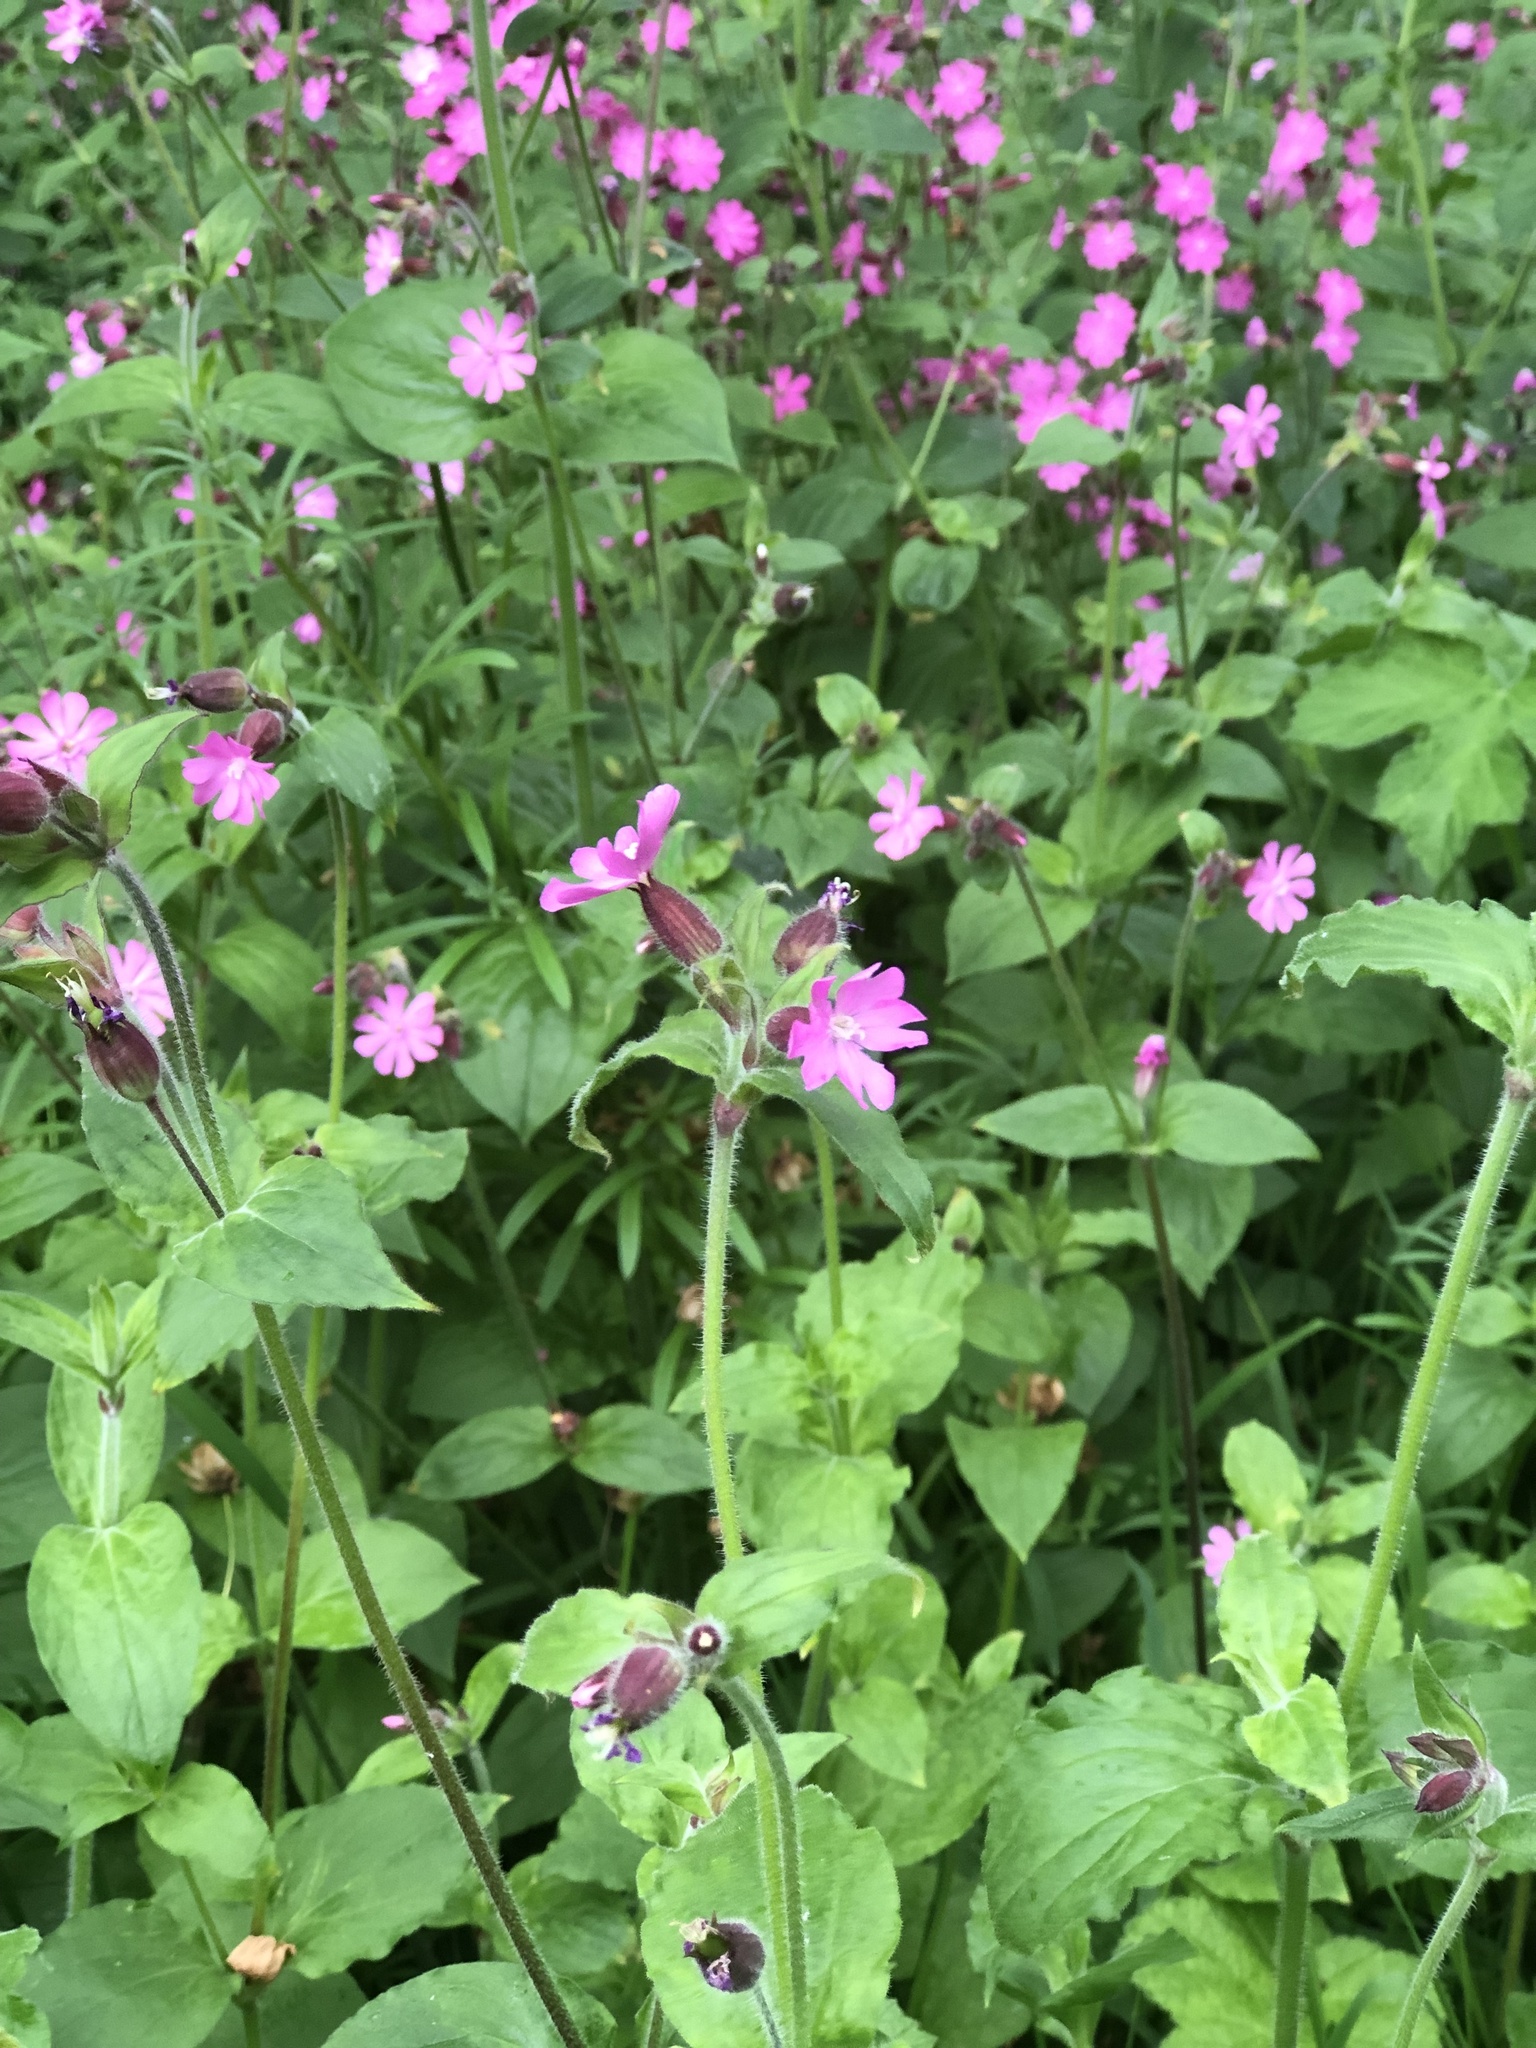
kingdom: Plantae
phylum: Tracheophyta
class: Magnoliopsida
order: Caryophyllales
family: Caryophyllaceae
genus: Silene
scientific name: Silene dioica
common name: Red campion
